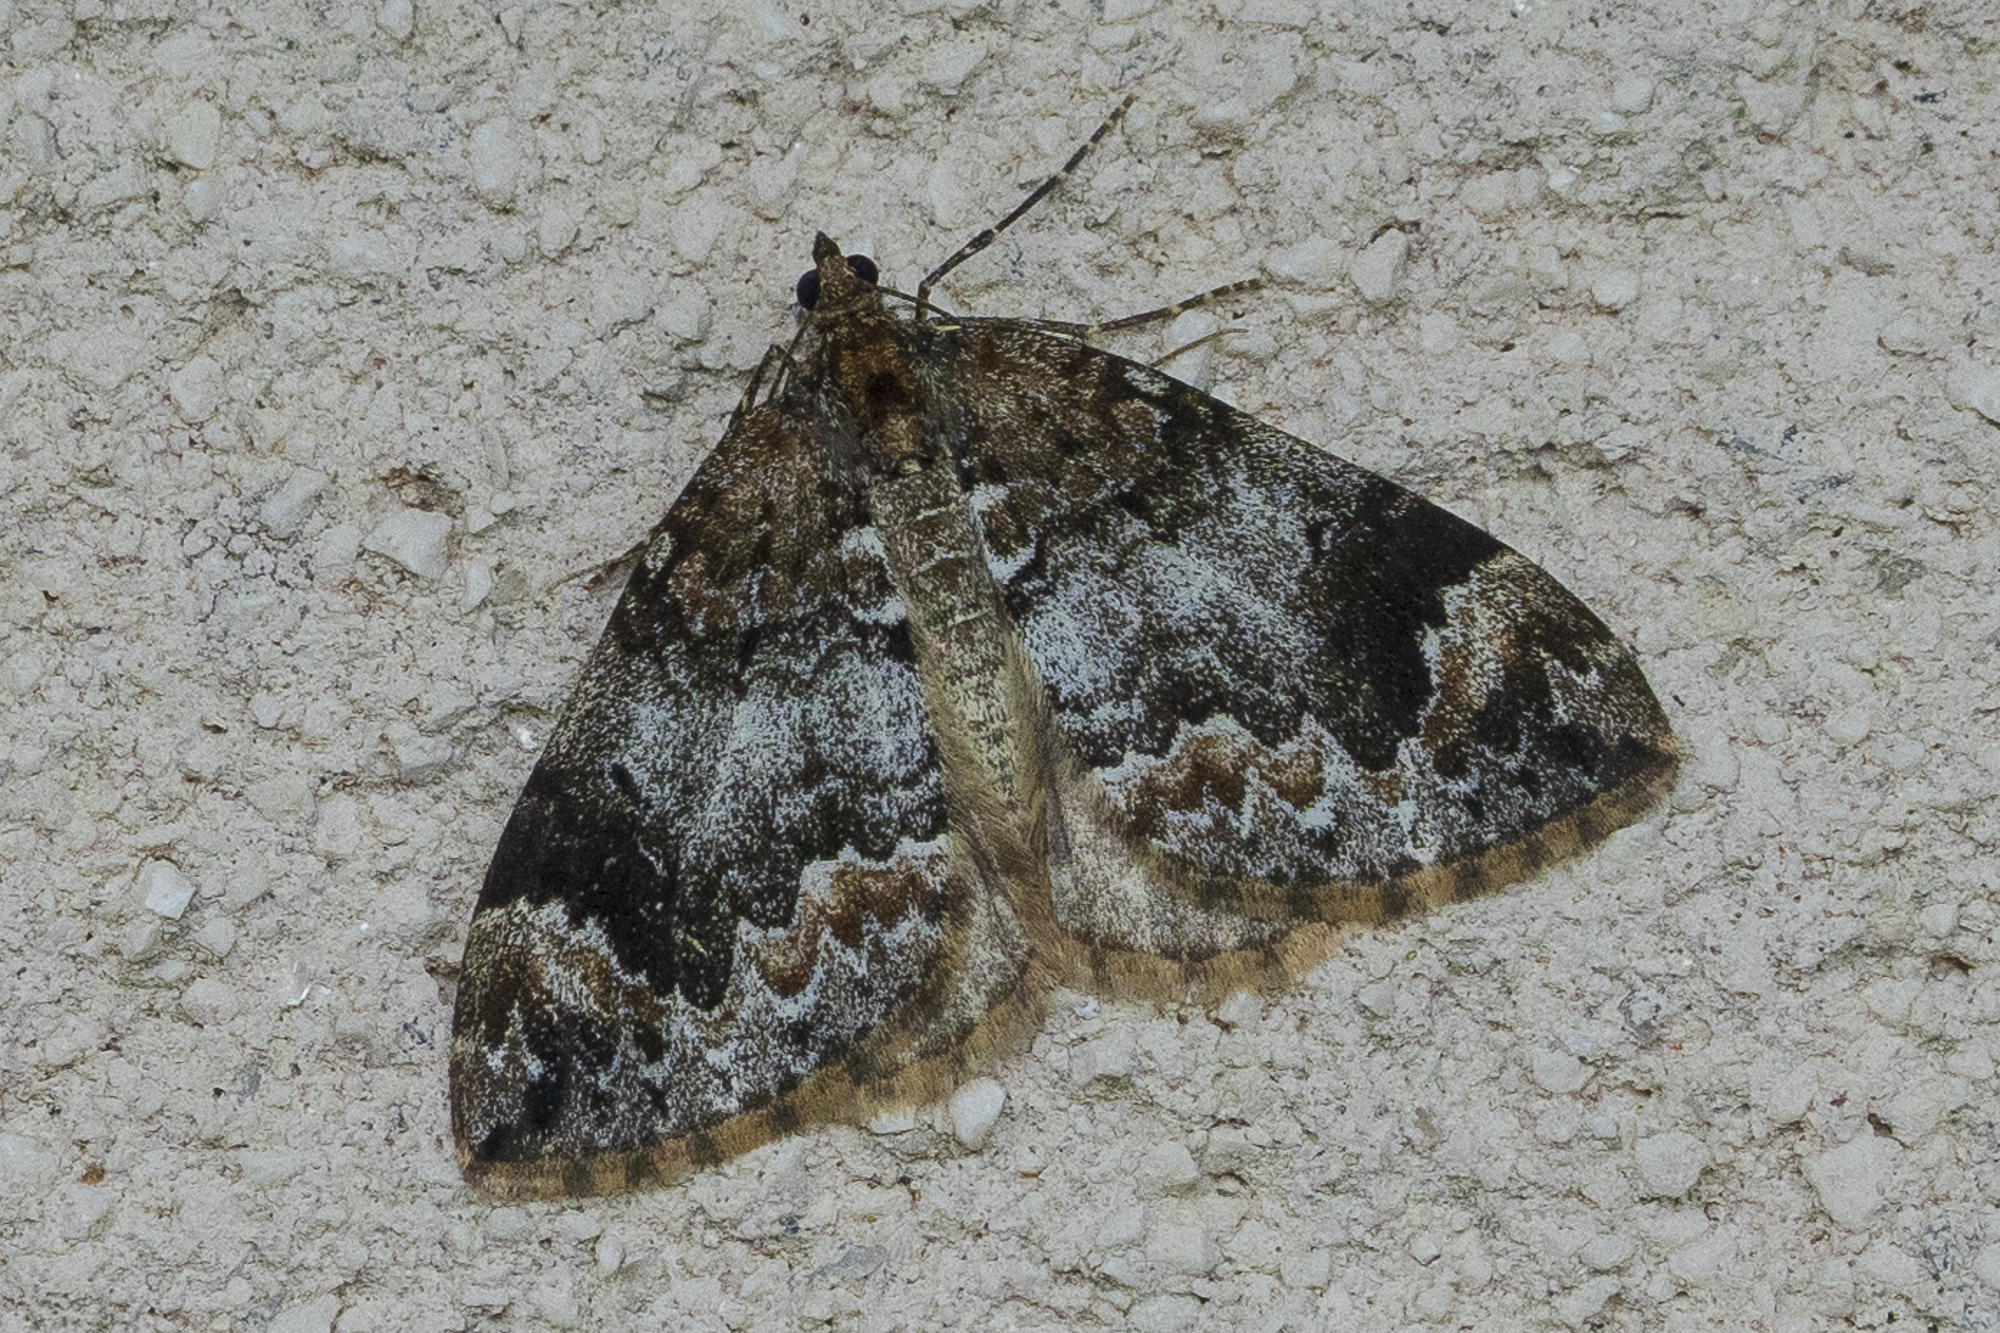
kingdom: Animalia
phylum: Arthropoda
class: Insecta
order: Lepidoptera
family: Geometridae
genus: Dysstroma
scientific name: Dysstroma
